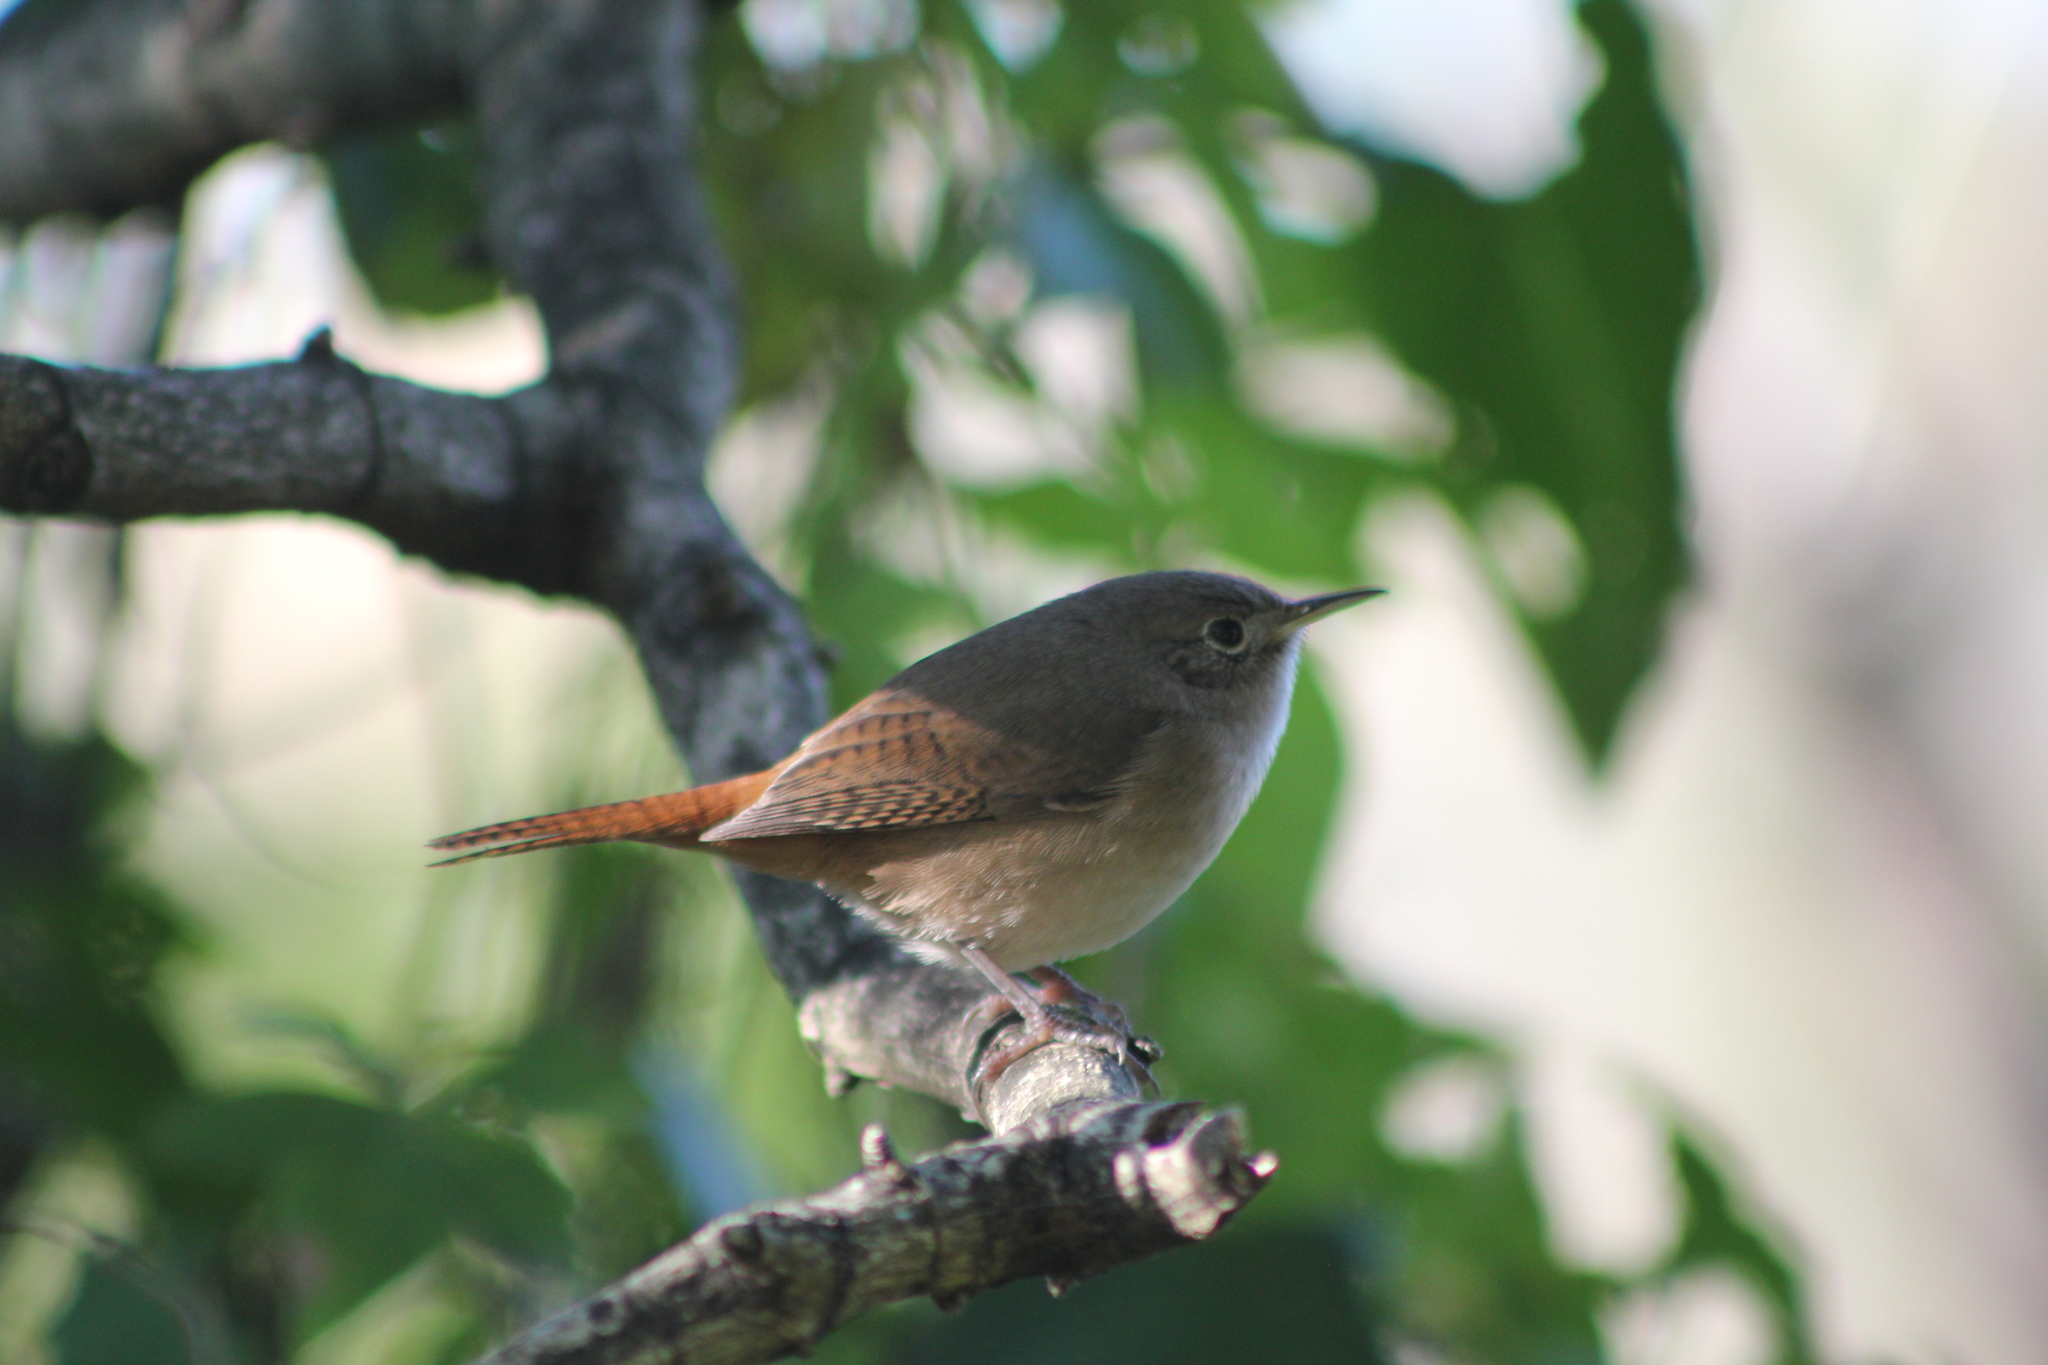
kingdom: Animalia
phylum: Chordata
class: Aves
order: Passeriformes
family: Troglodytidae
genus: Troglodytes
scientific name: Troglodytes aedon
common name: House wren
